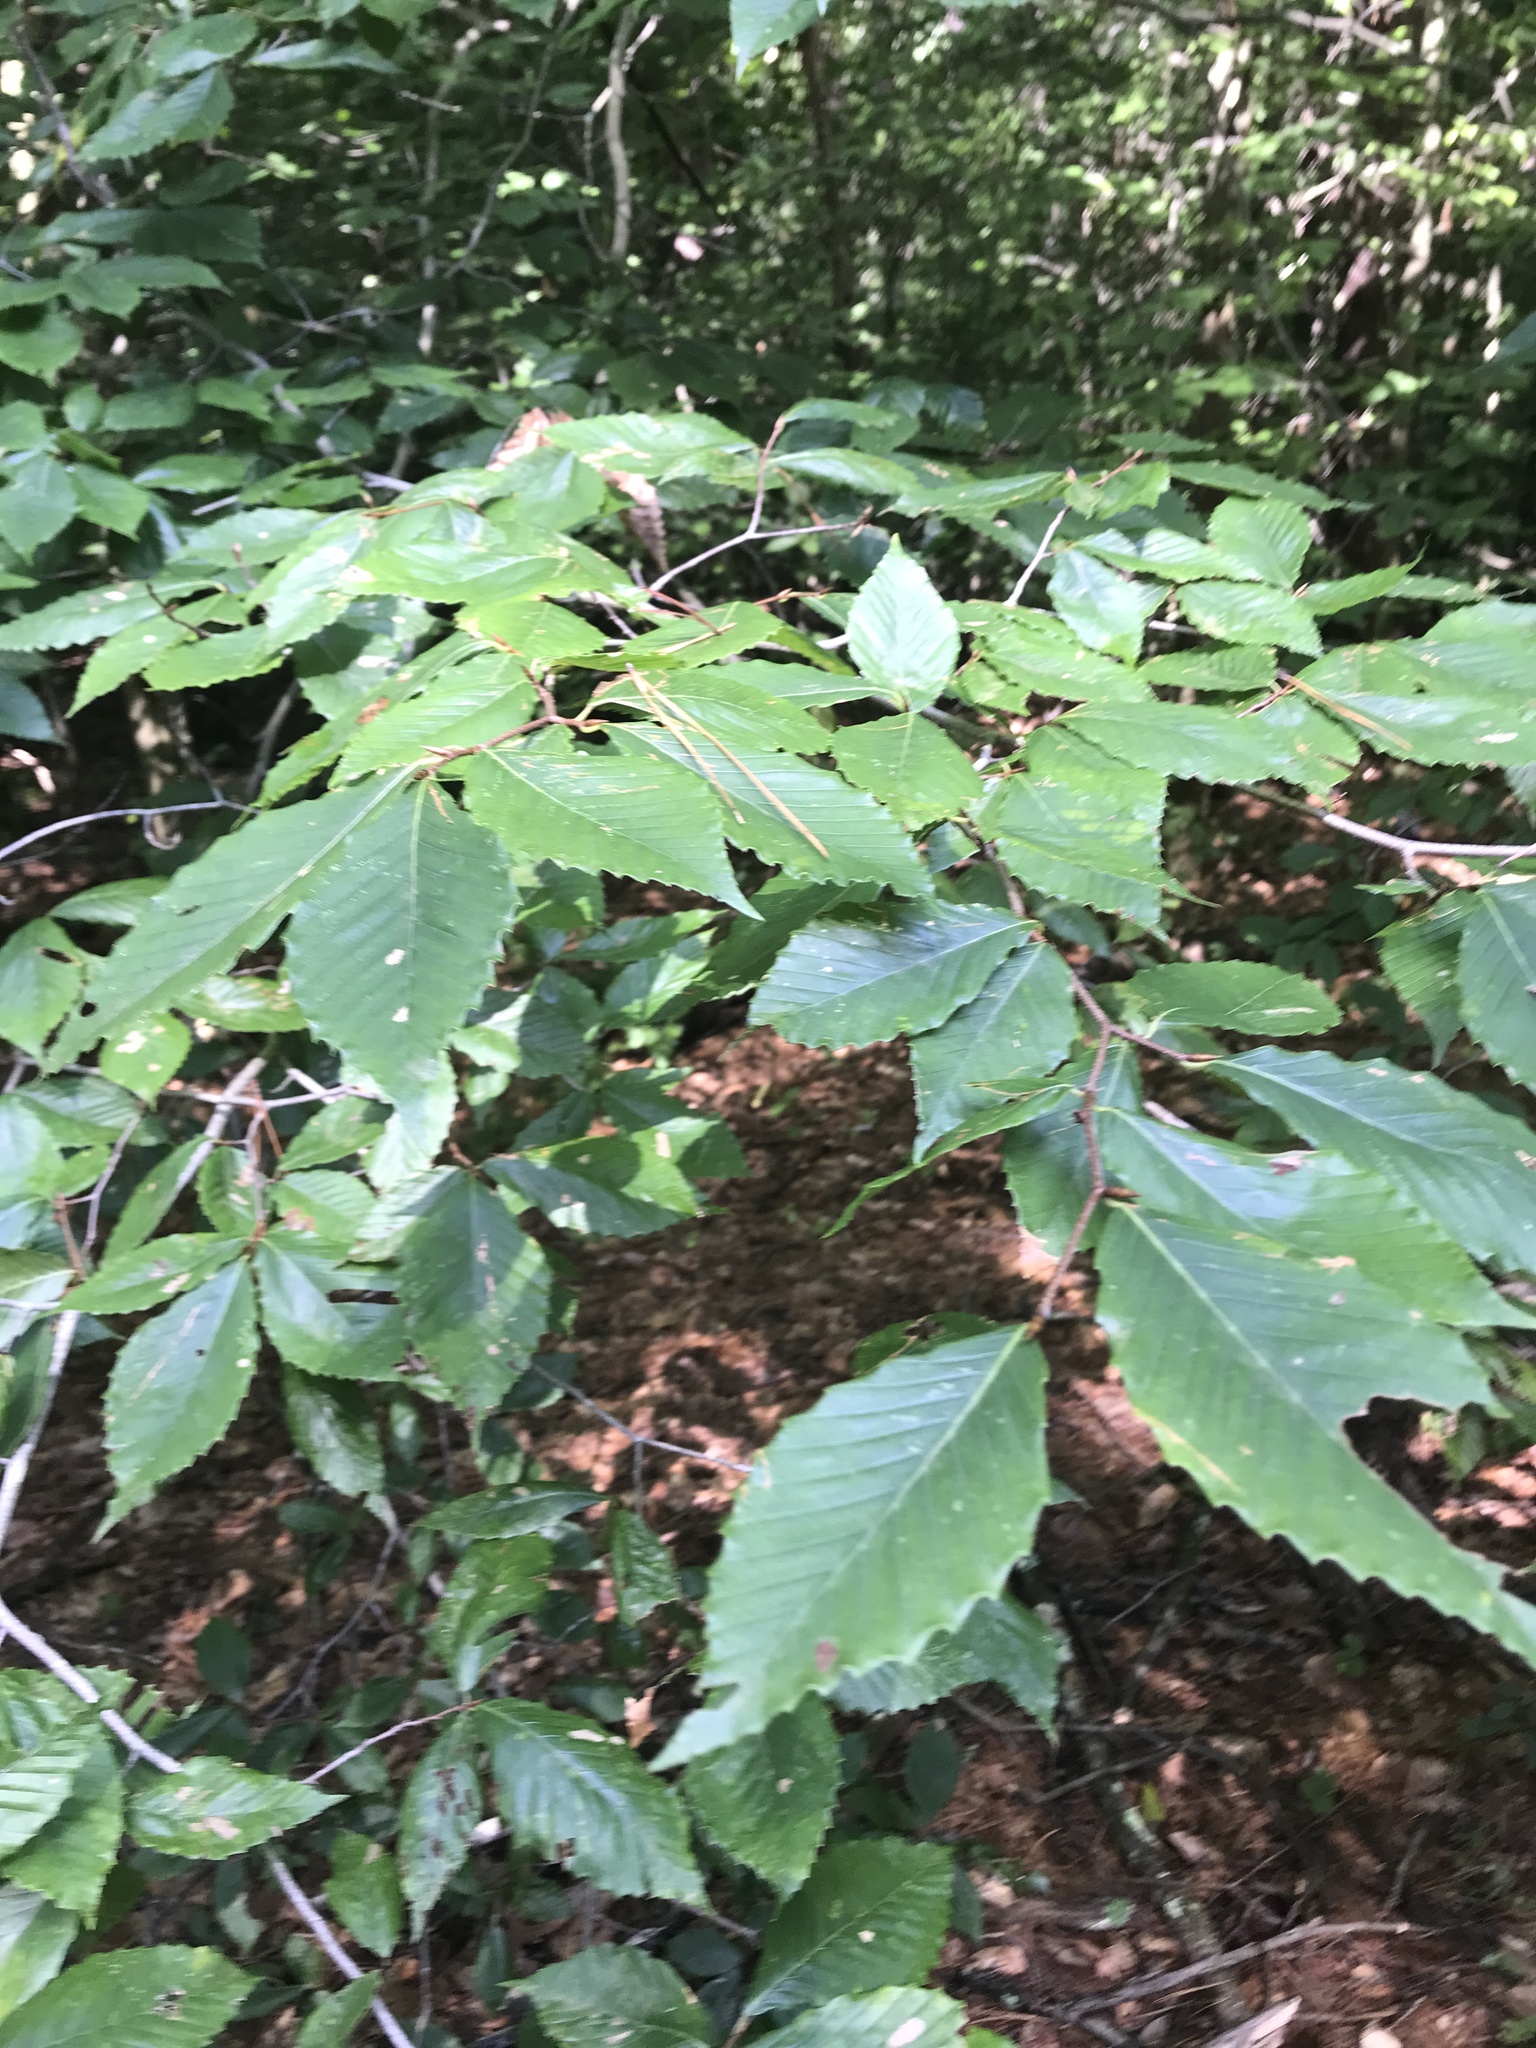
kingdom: Plantae
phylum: Tracheophyta
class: Magnoliopsida
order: Fagales
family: Fagaceae
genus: Fagus
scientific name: Fagus grandifolia
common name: American beech
